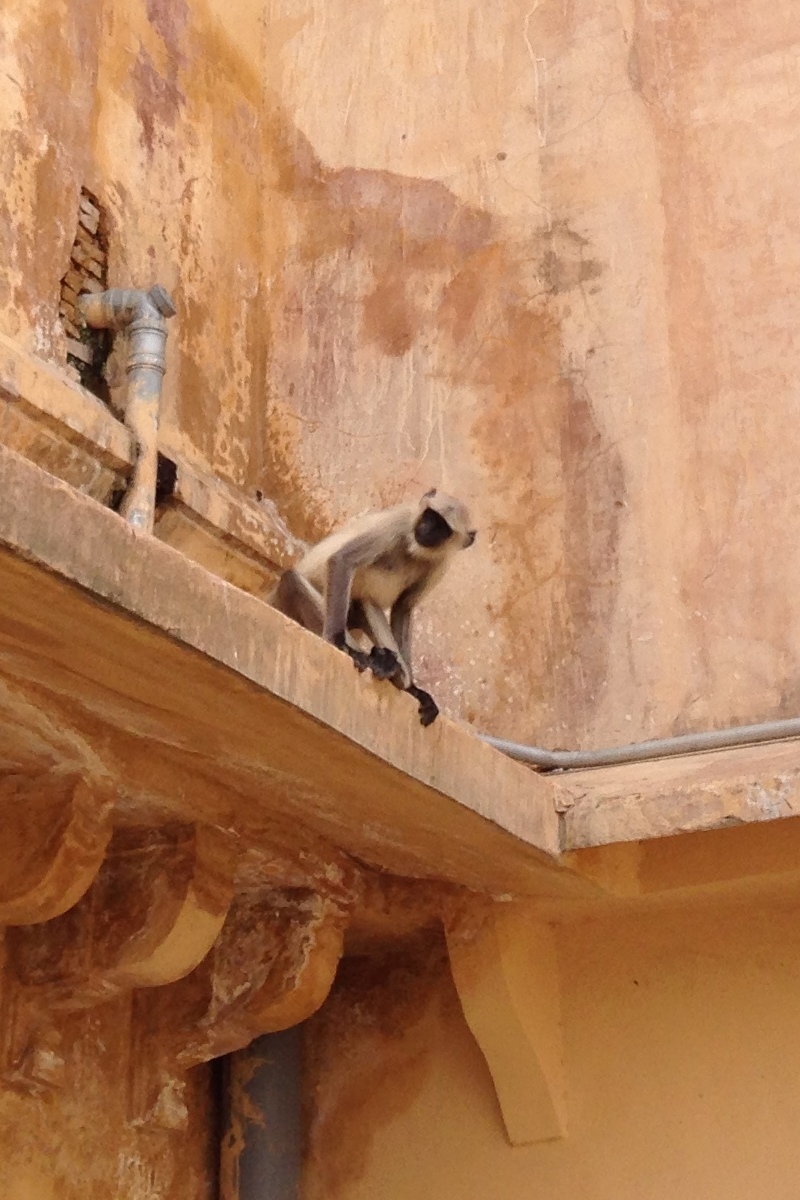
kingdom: Animalia
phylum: Chordata
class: Mammalia
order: Primates
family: Cercopithecidae
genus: Semnopithecus
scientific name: Semnopithecus entellus
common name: Northern plains gray langur
